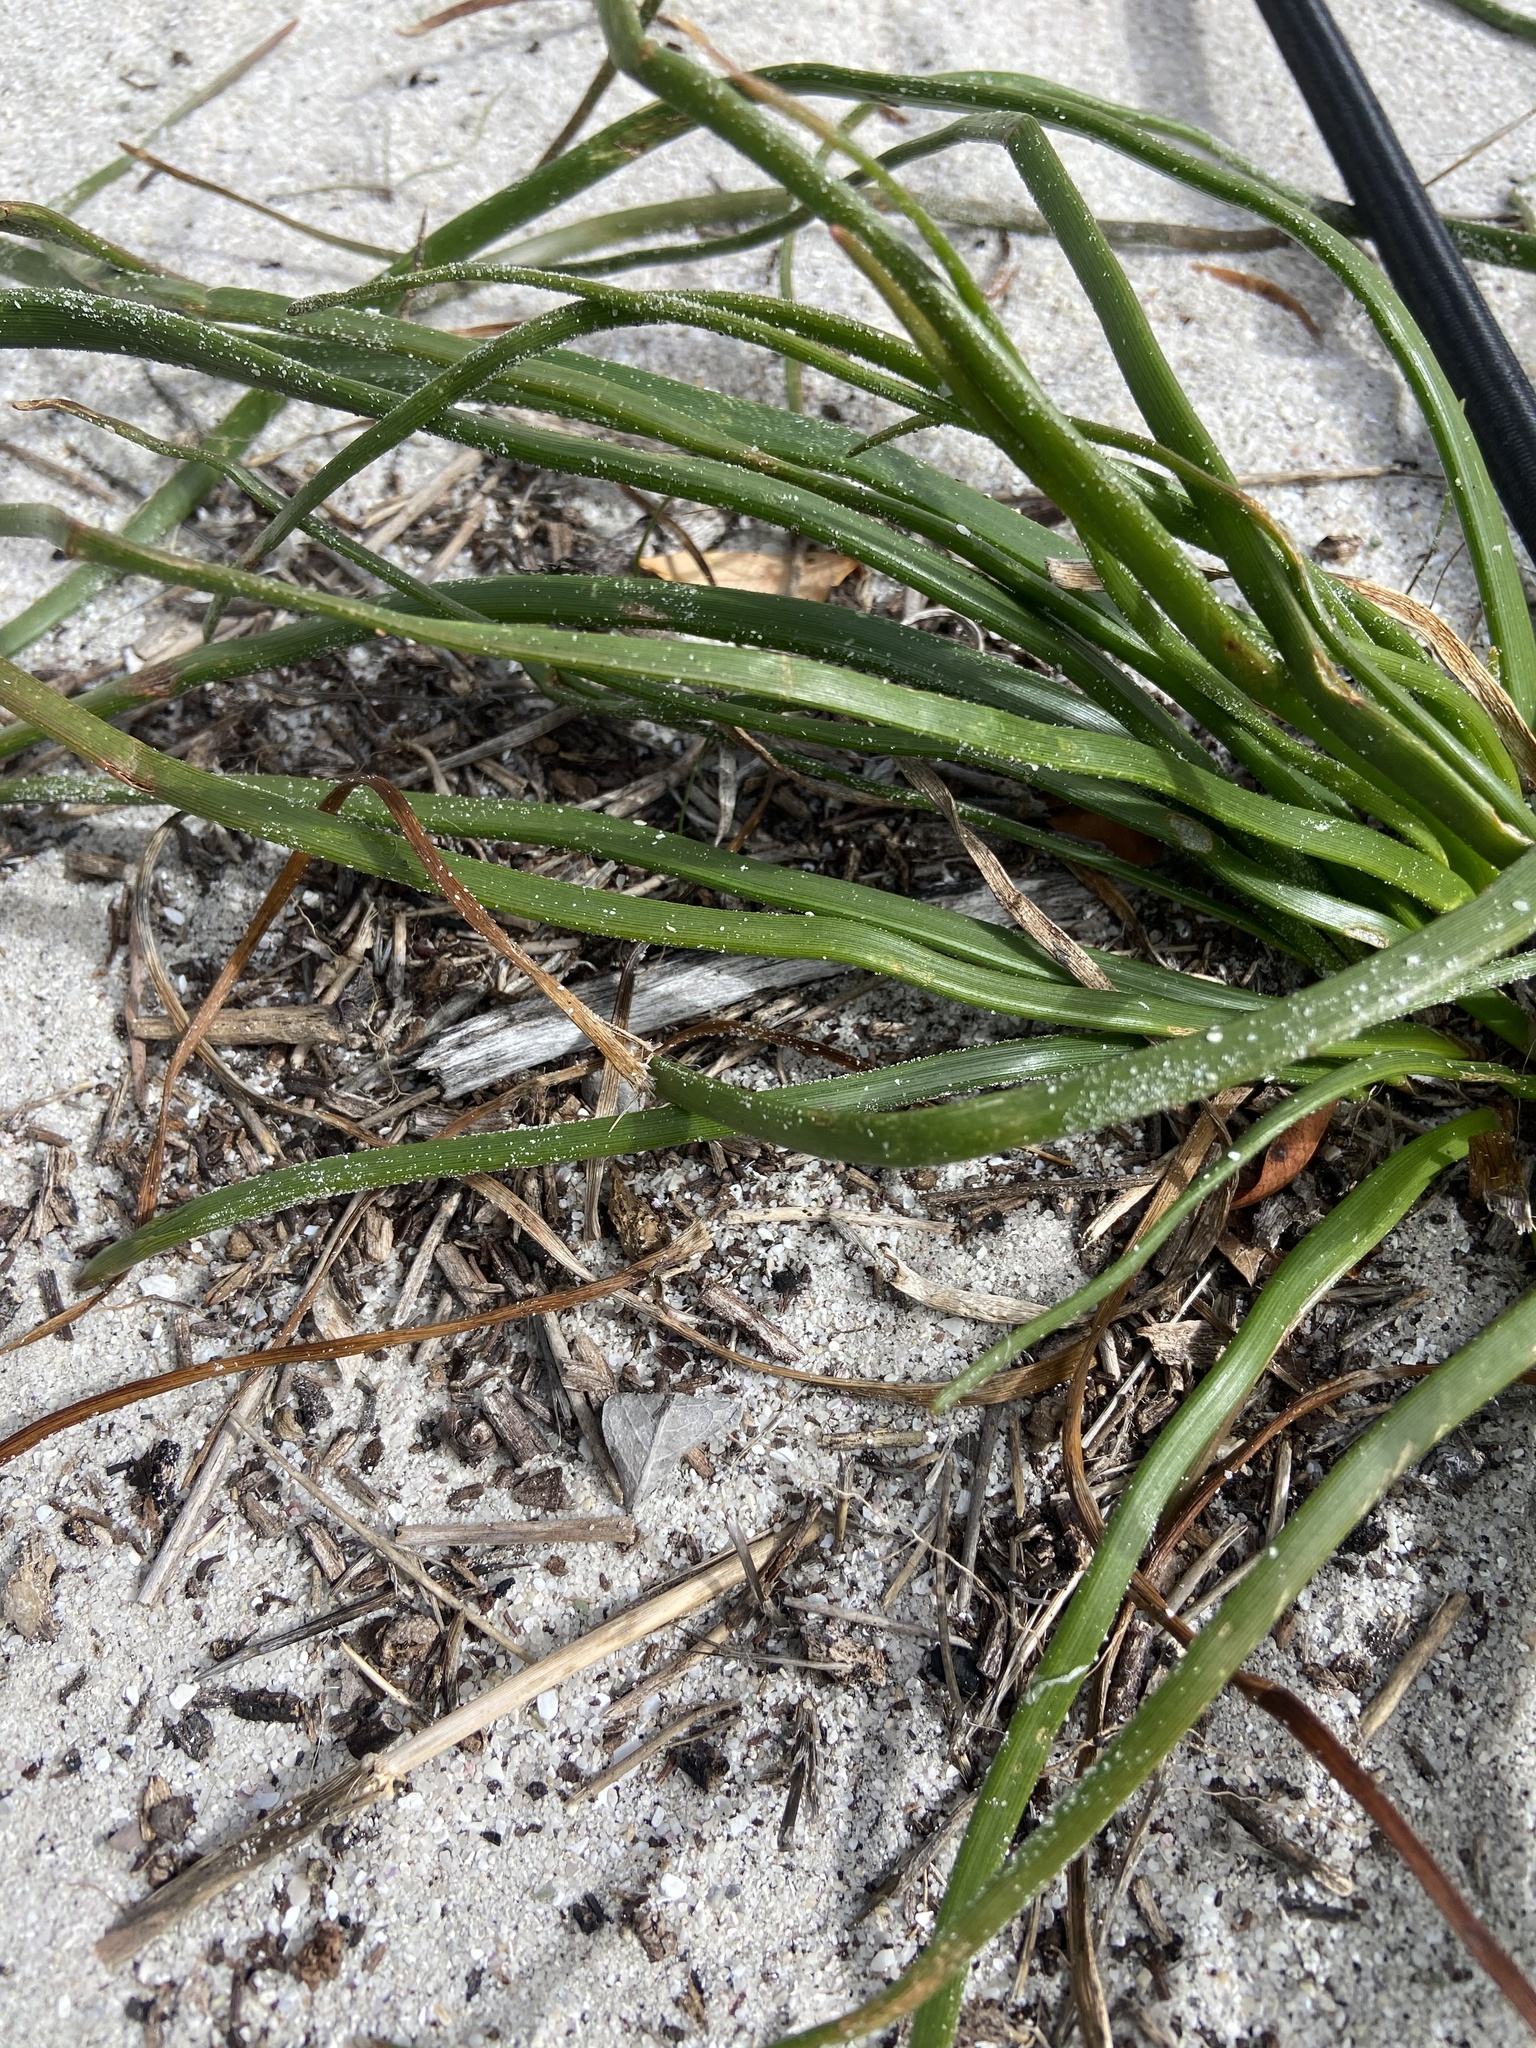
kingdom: Plantae
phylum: Tracheophyta
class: Liliopsida
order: Asparagales
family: Asphodelaceae
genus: Trachyandra
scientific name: Trachyandra divaricata
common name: Dune onionweed
